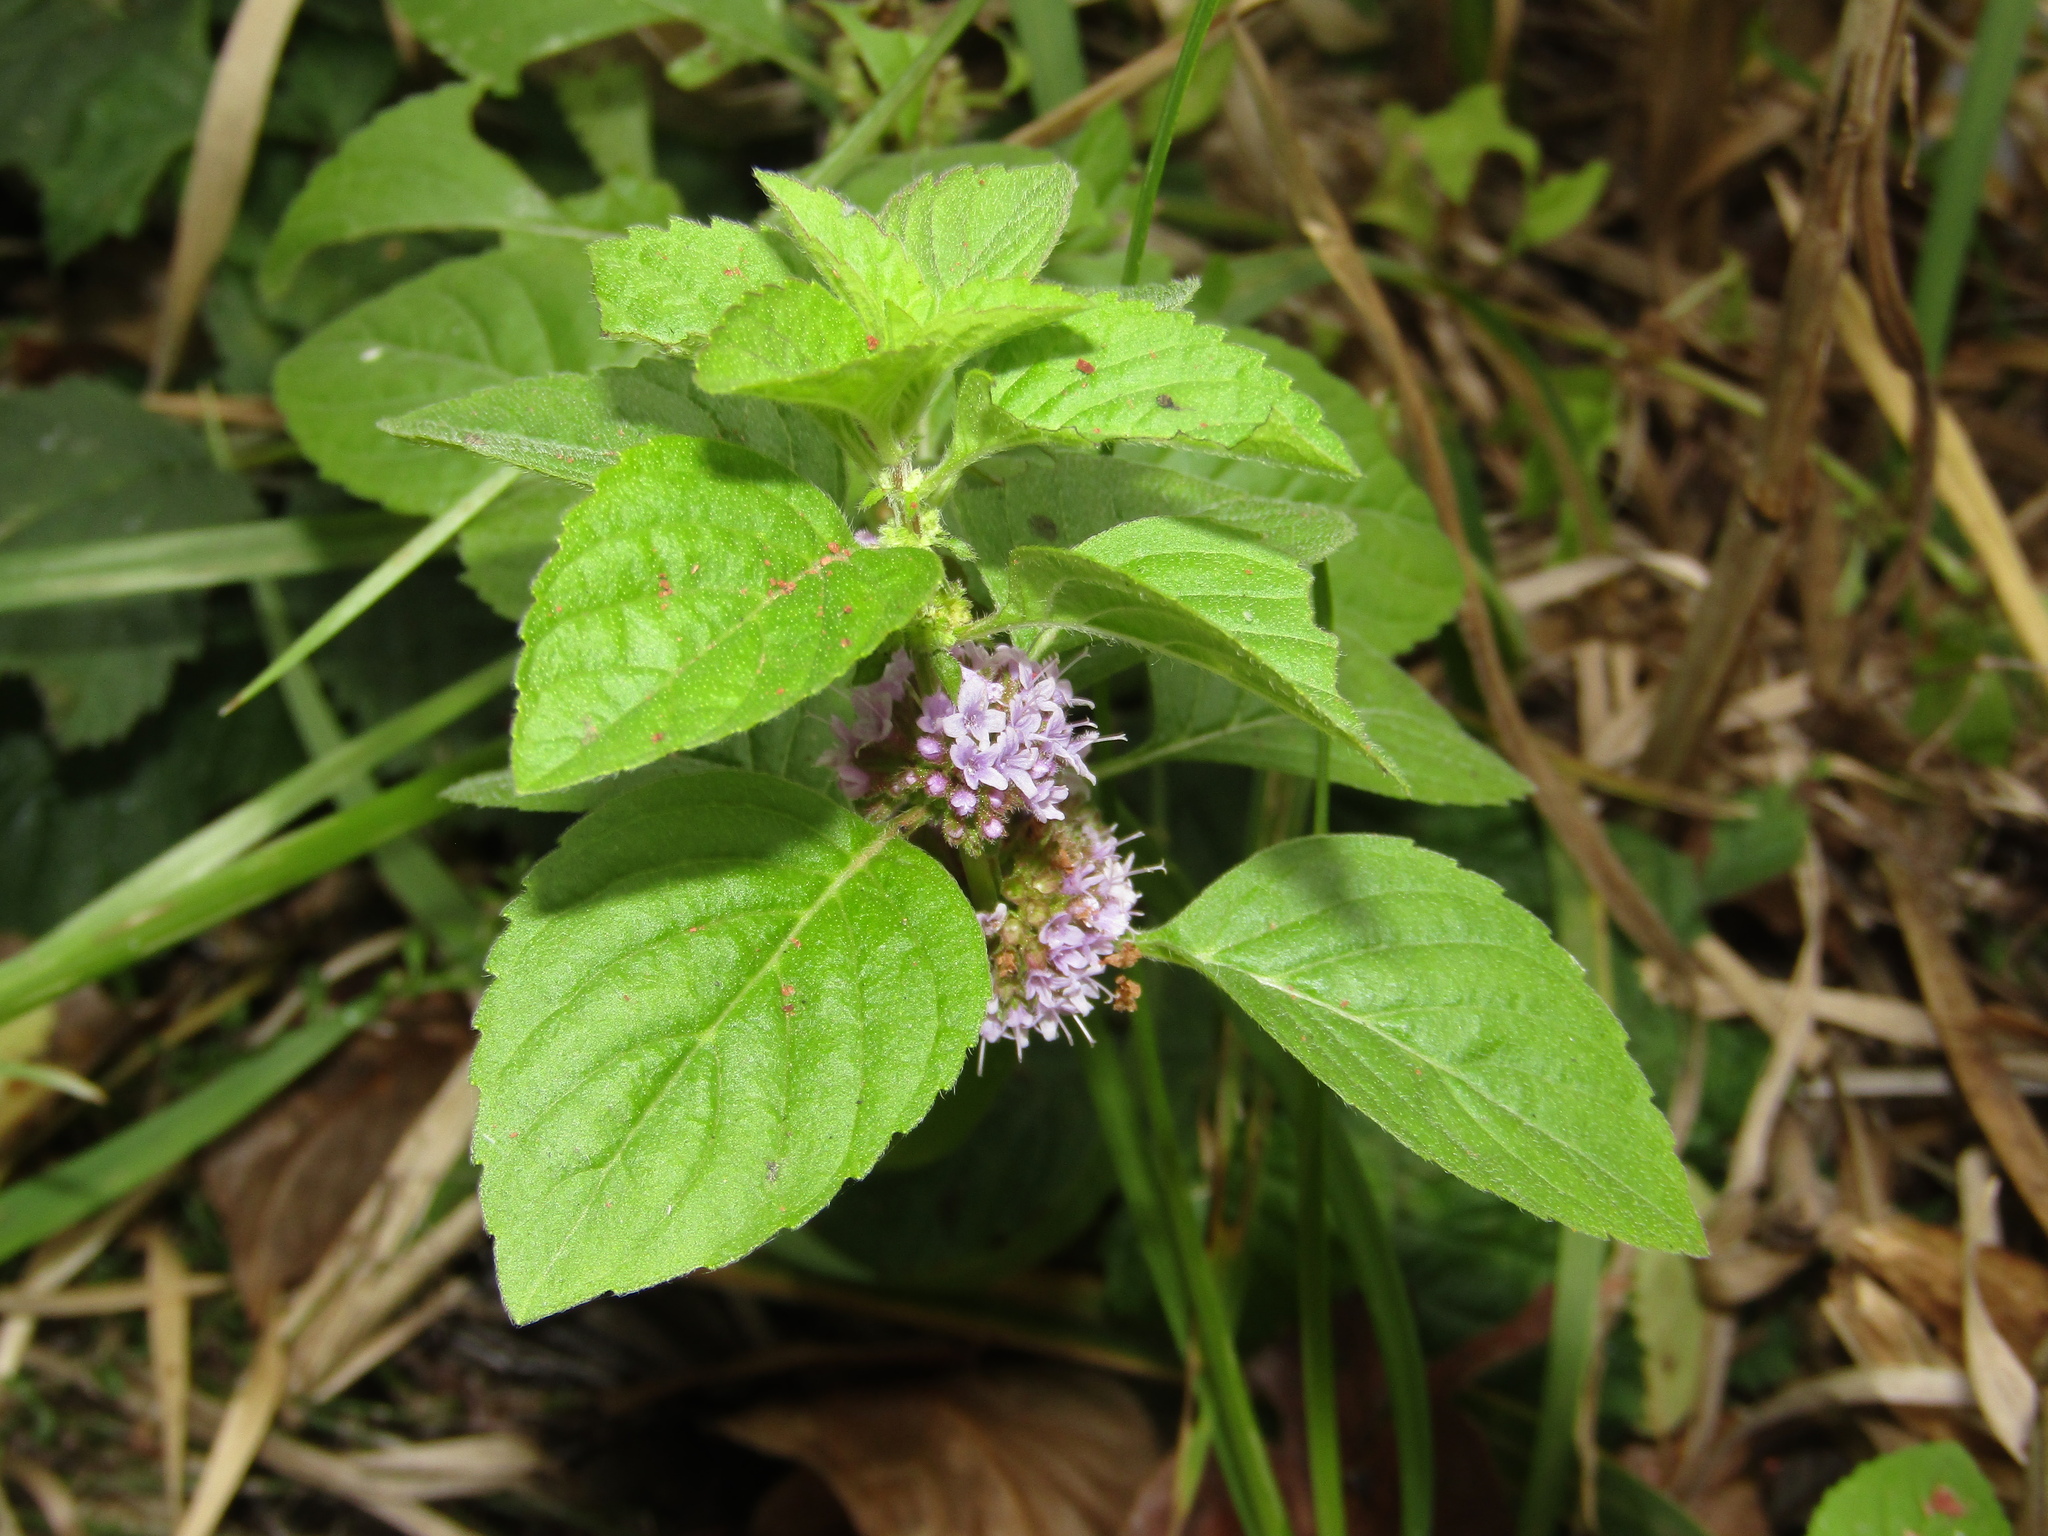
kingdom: Plantae
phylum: Tracheophyta
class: Magnoliopsida
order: Lamiales
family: Lamiaceae
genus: Mentha
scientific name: Mentha arvensis
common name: Corn mint
